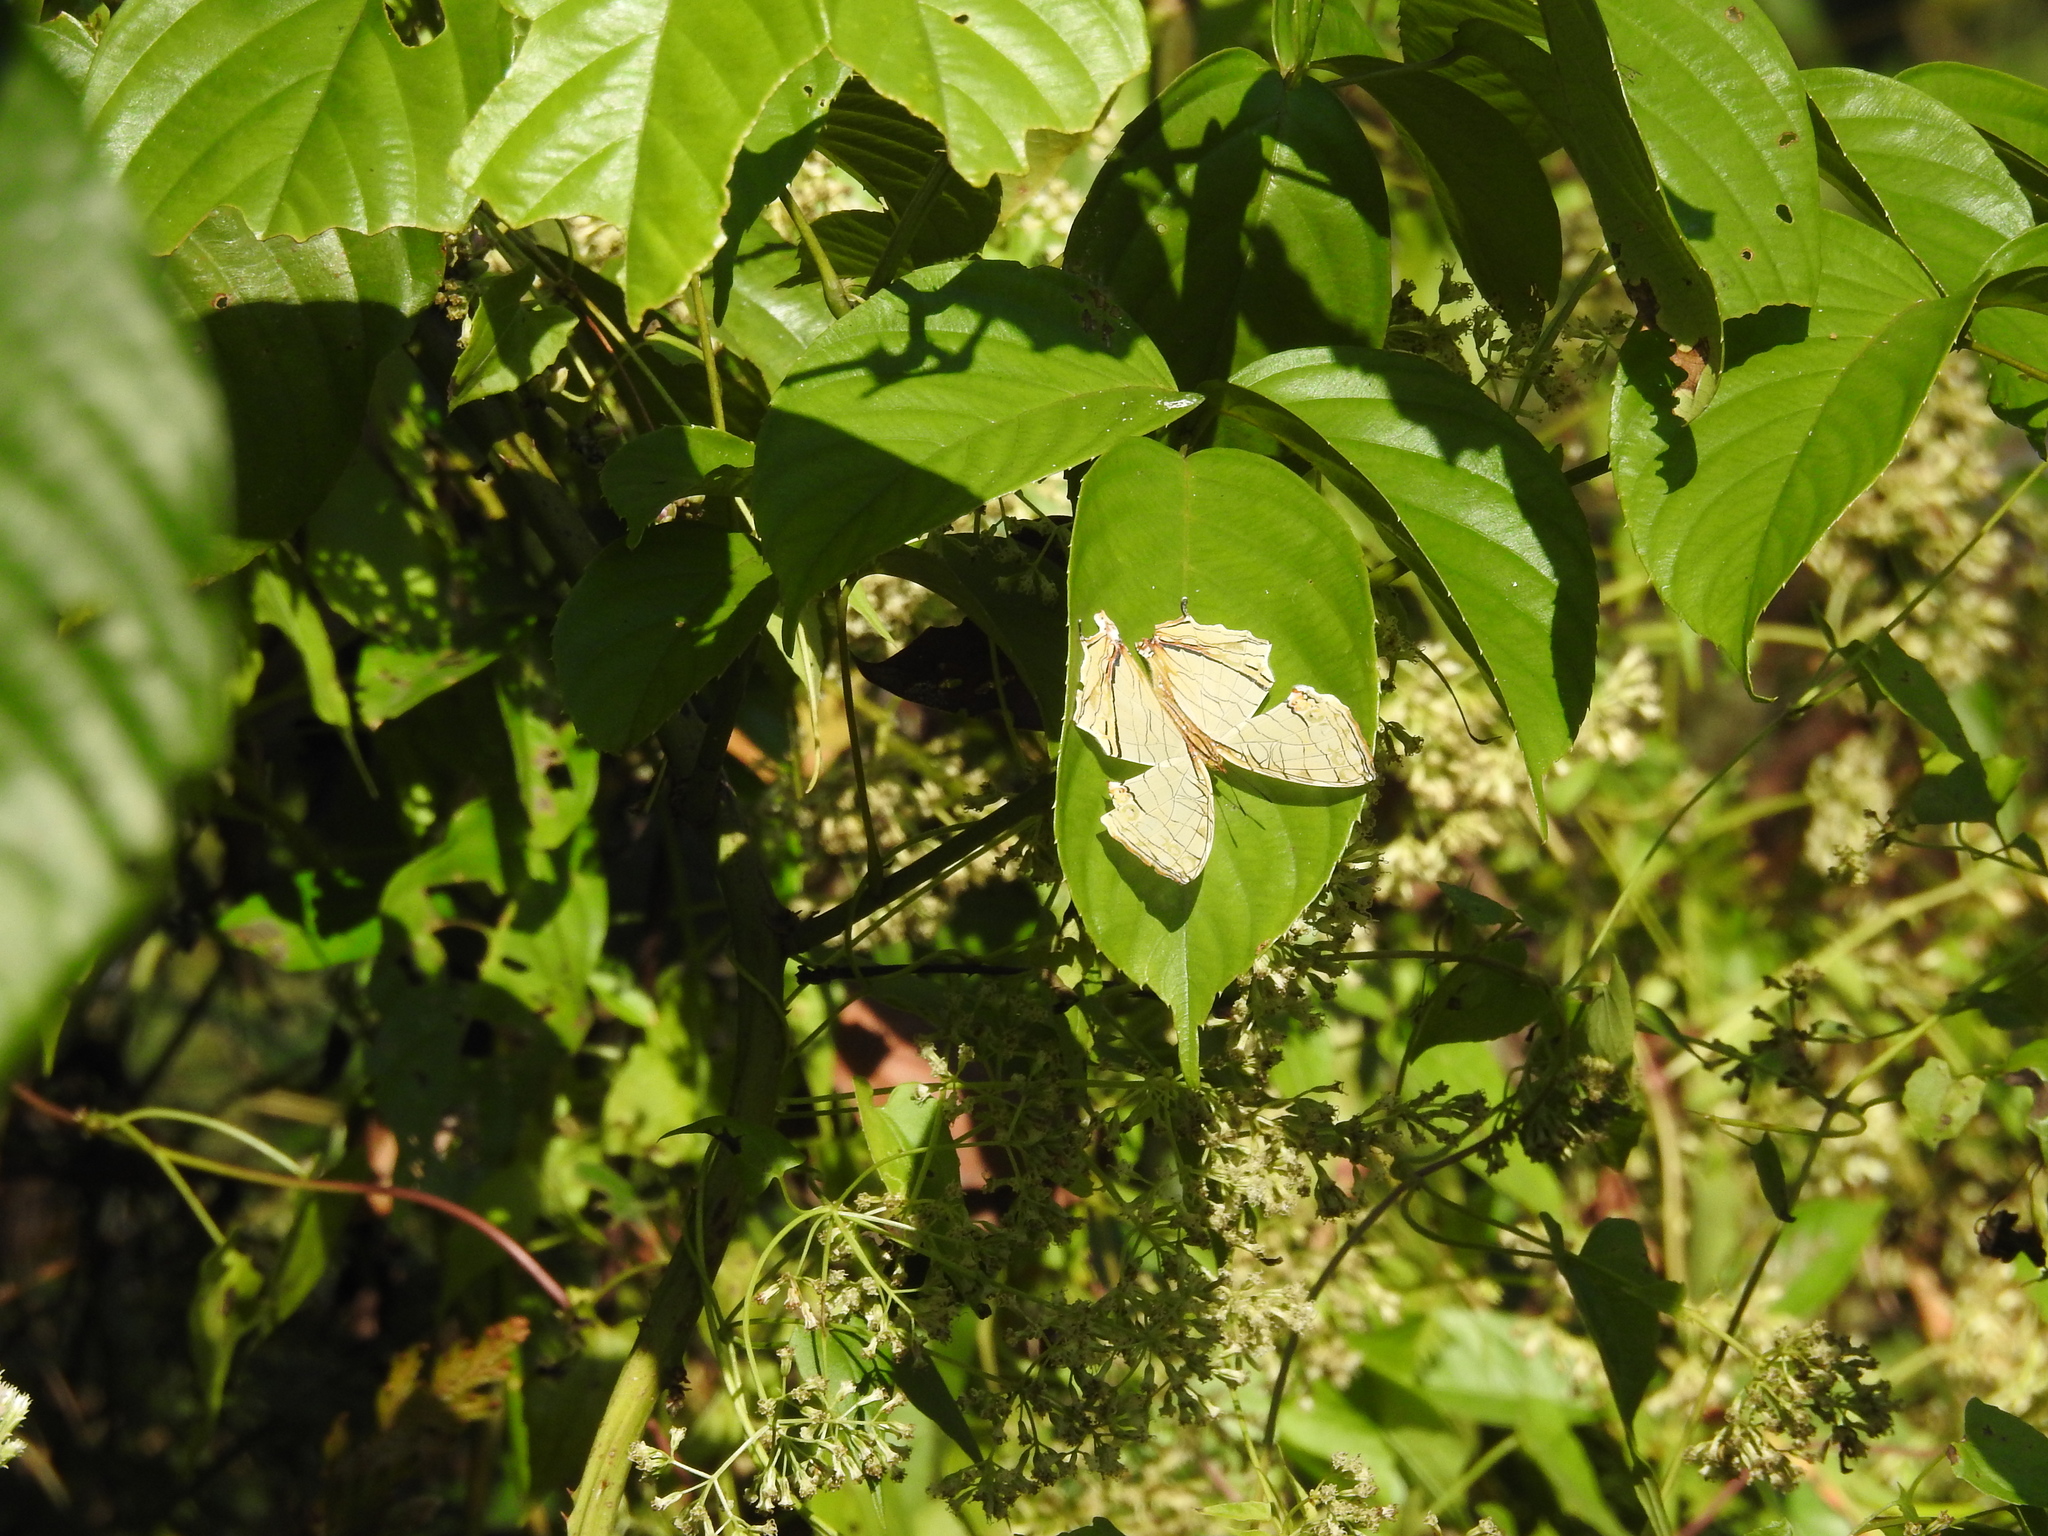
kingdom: Animalia
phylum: Arthropoda
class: Insecta
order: Lepidoptera
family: Nymphalidae
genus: Cyrestis
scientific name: Cyrestis thyodamas
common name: Common mapwing
